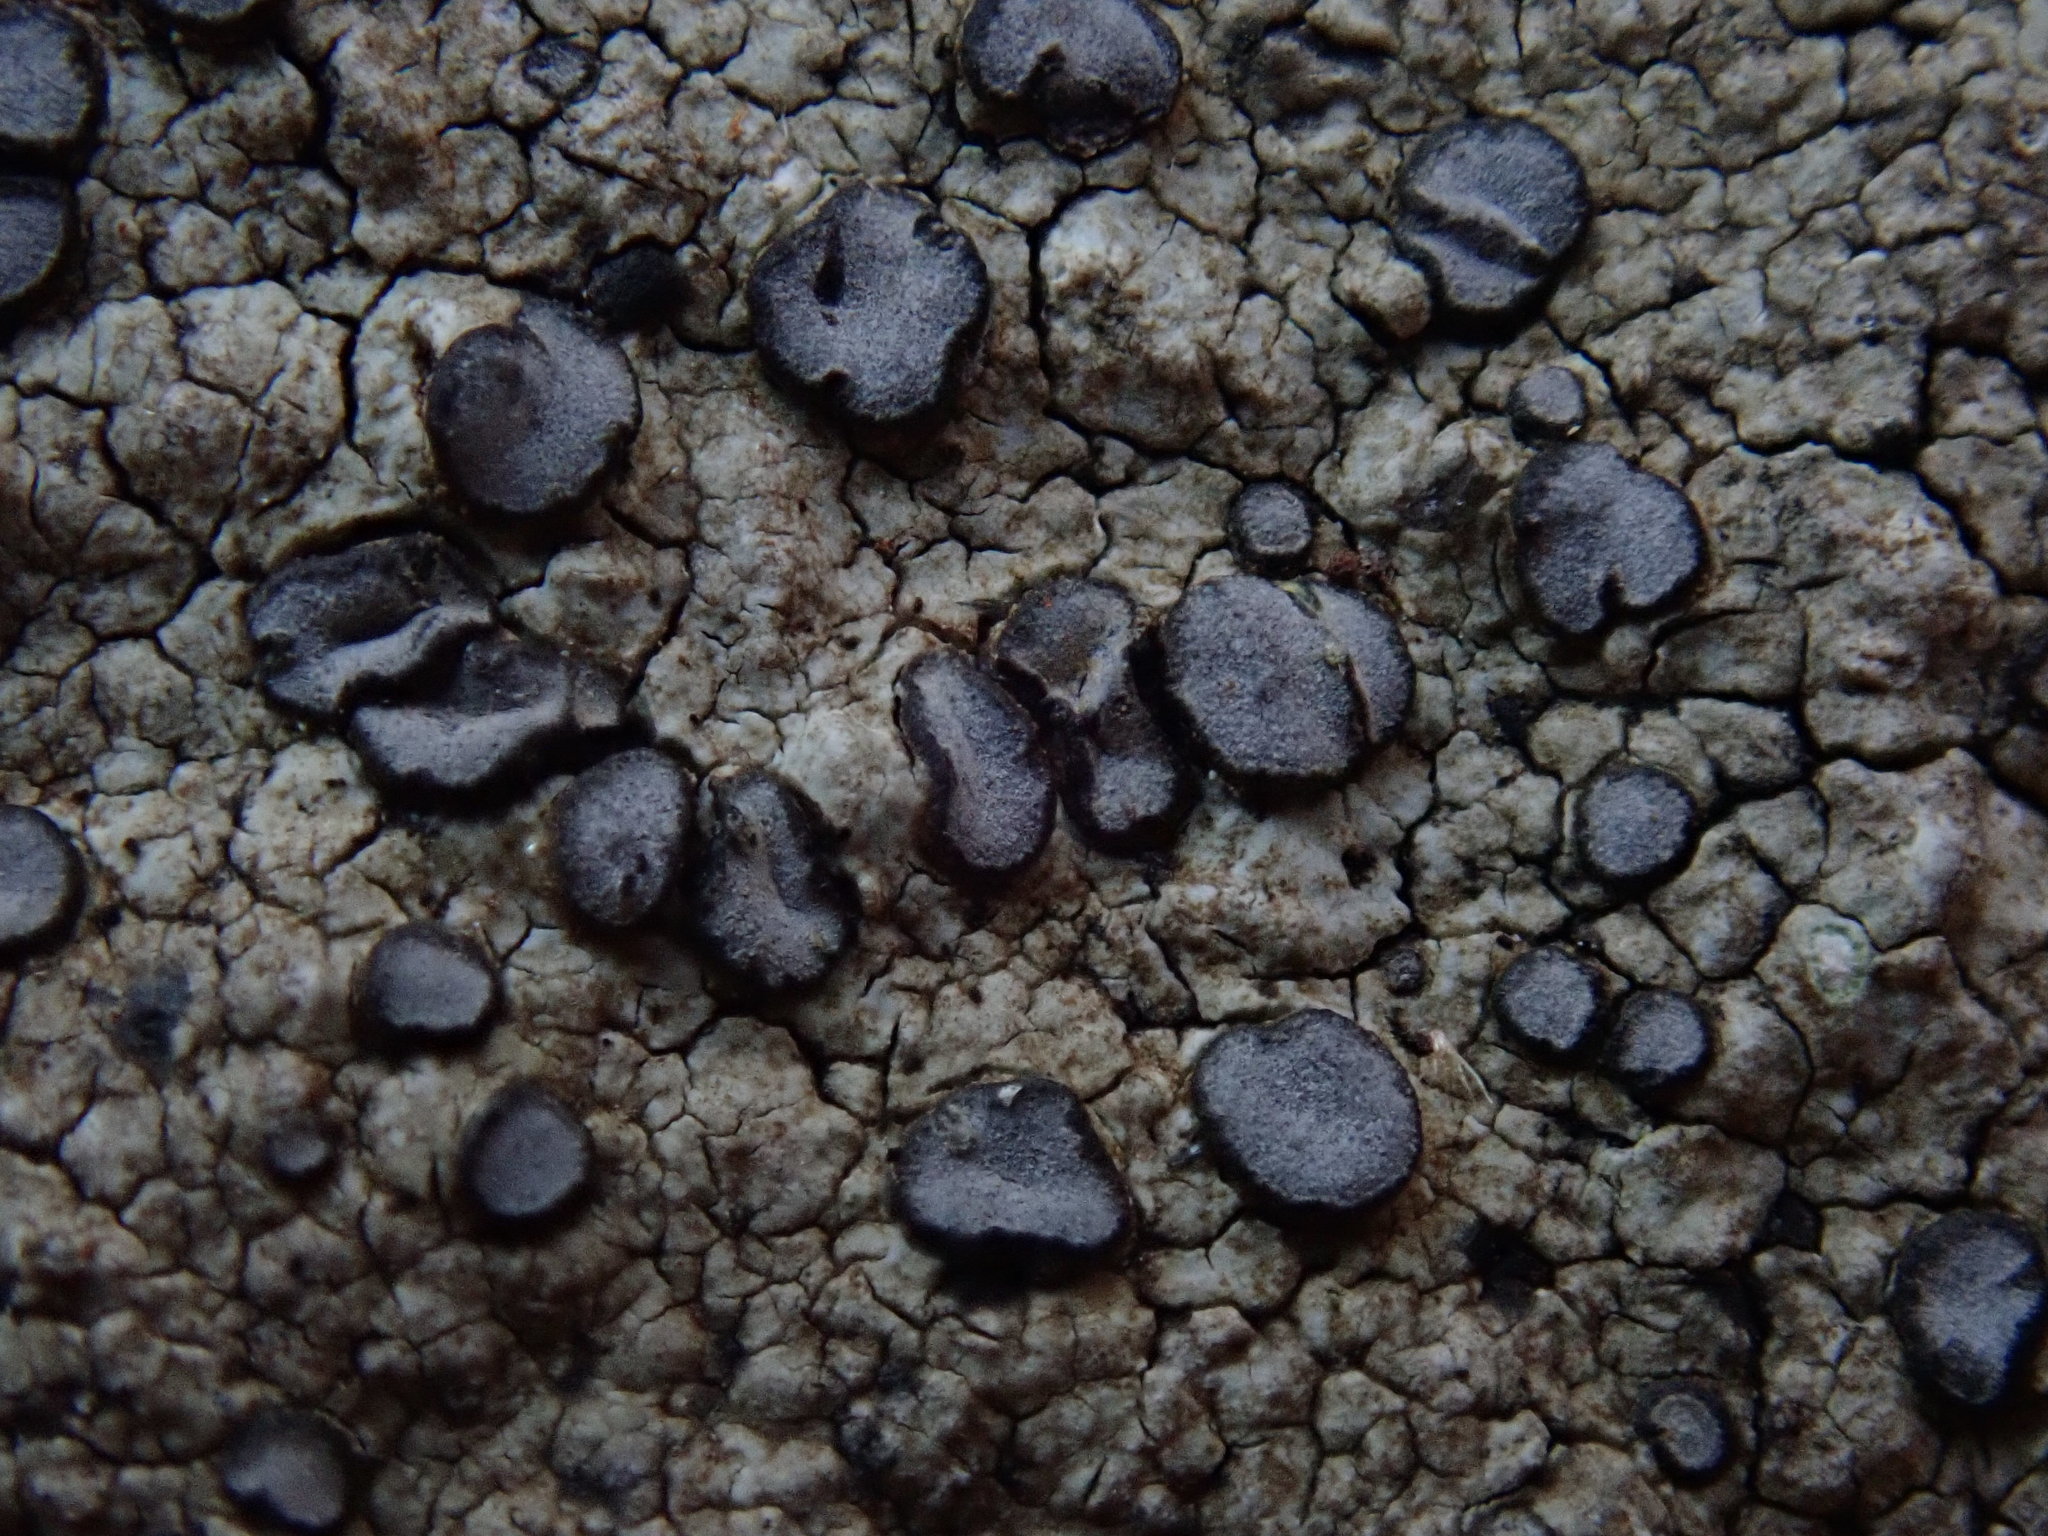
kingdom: Fungi
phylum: Ascomycota
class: Lecanoromycetes
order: Lecideales
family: Lecideaceae
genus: Porpidia
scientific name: Porpidia albocaerulescens
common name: Smokey-eyed boulder lichen
